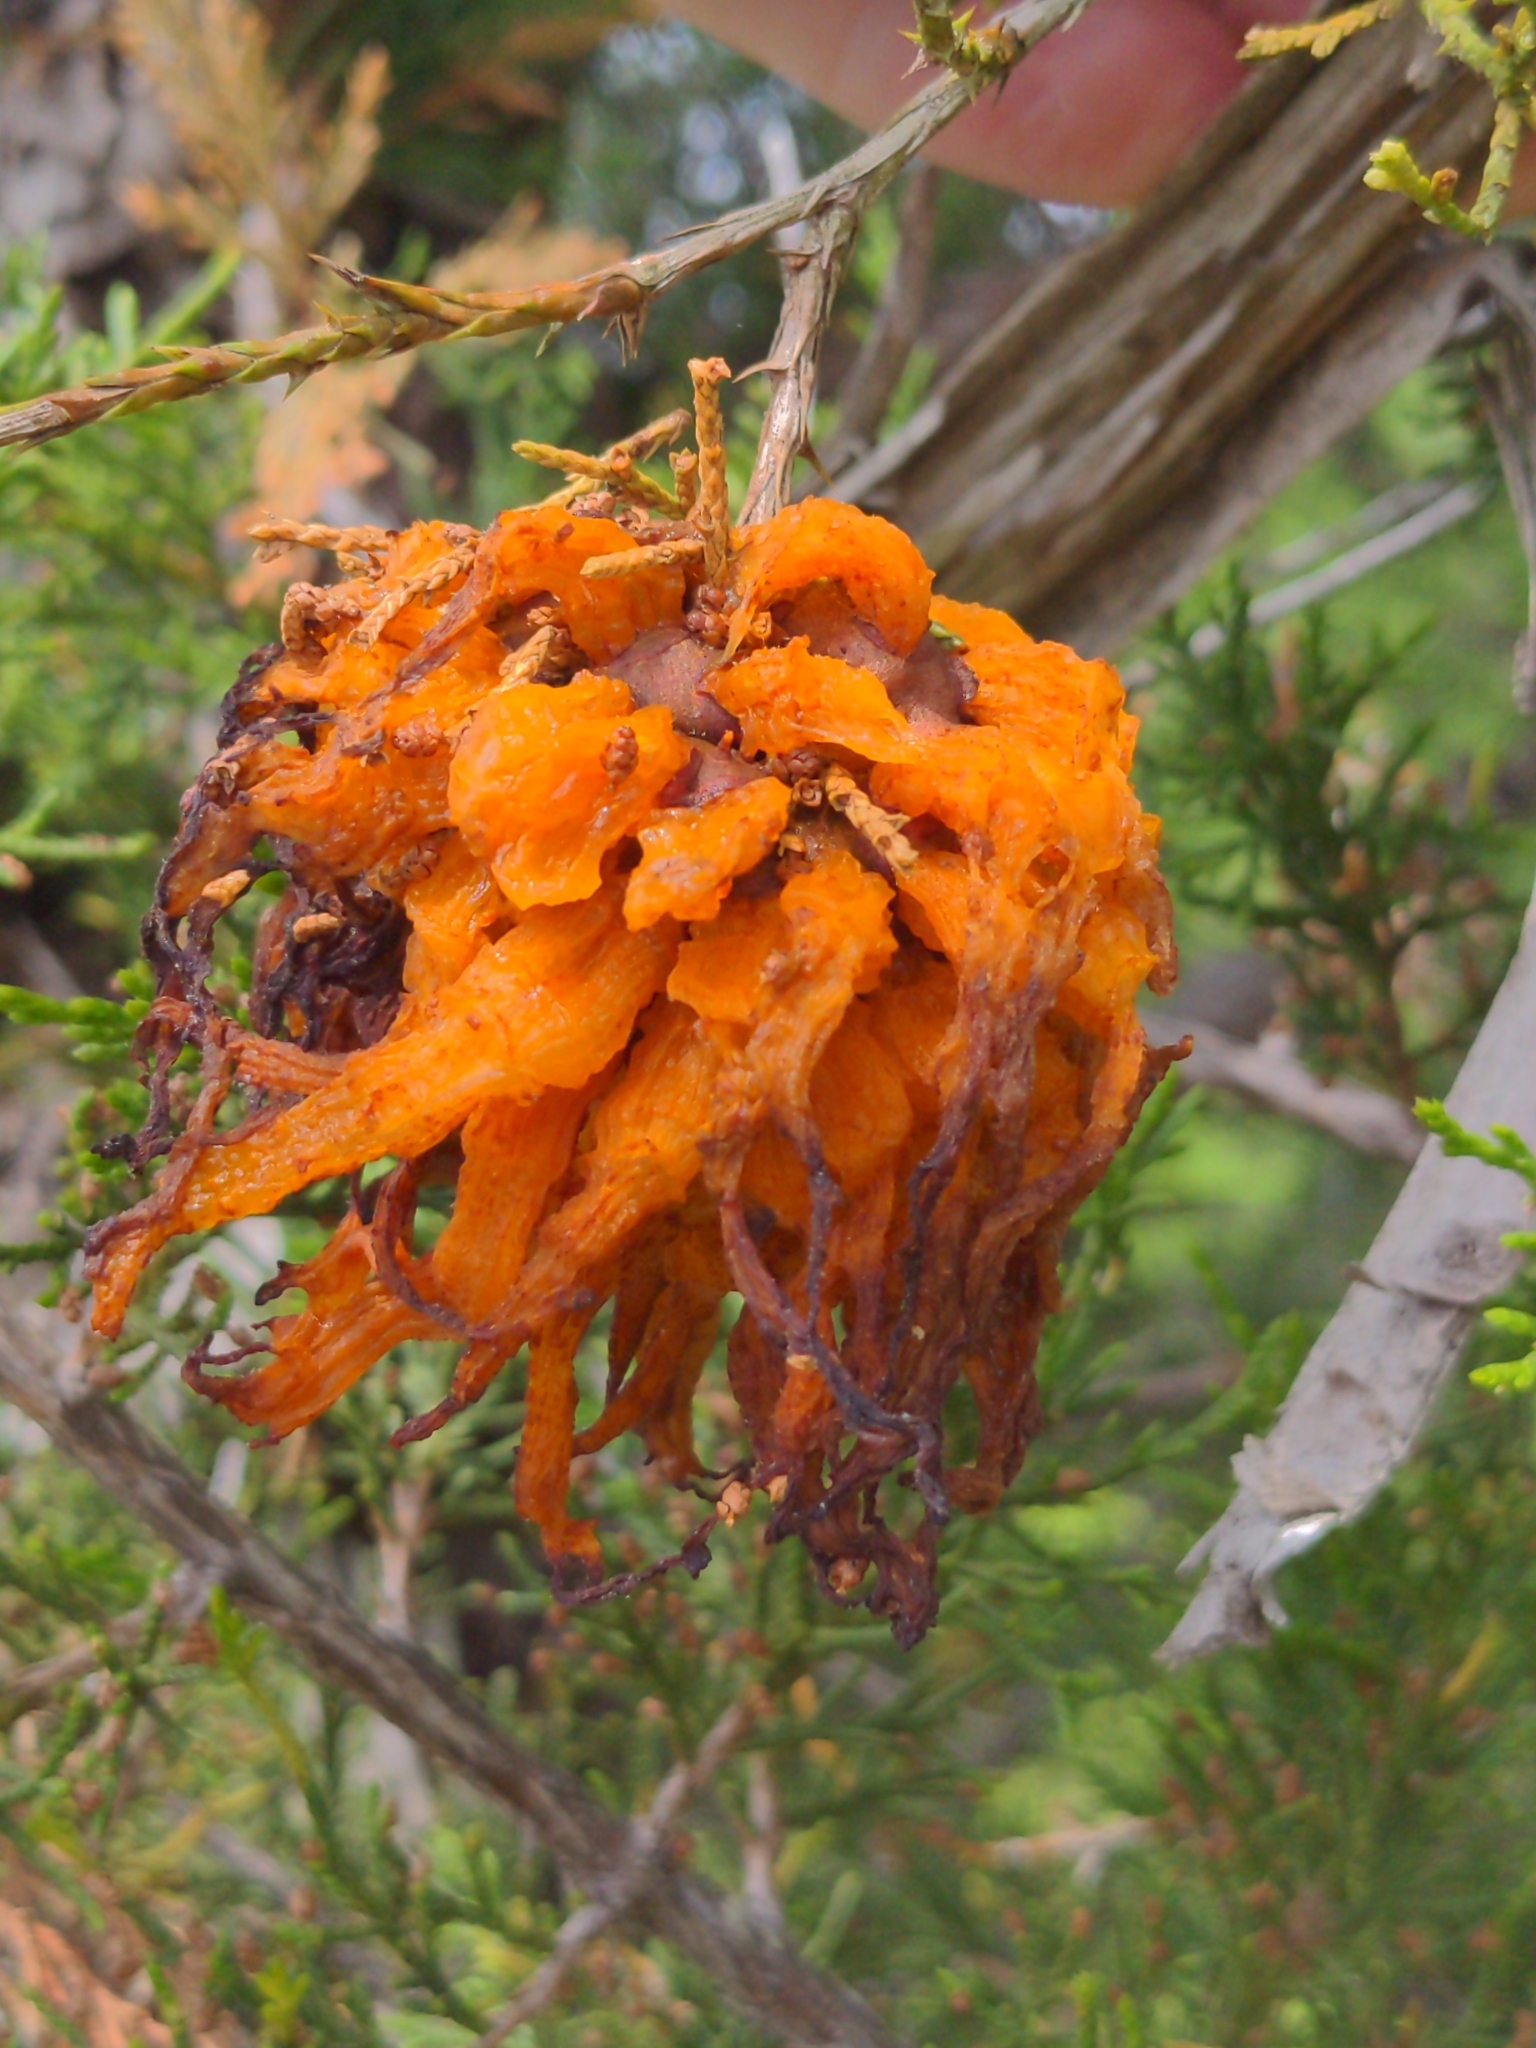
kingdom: Fungi
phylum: Basidiomycota
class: Pucciniomycetes
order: Pucciniales
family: Gymnosporangiaceae
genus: Gymnosporangium
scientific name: Gymnosporangium juniperi-virginianae
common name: Juniper-apple rust
